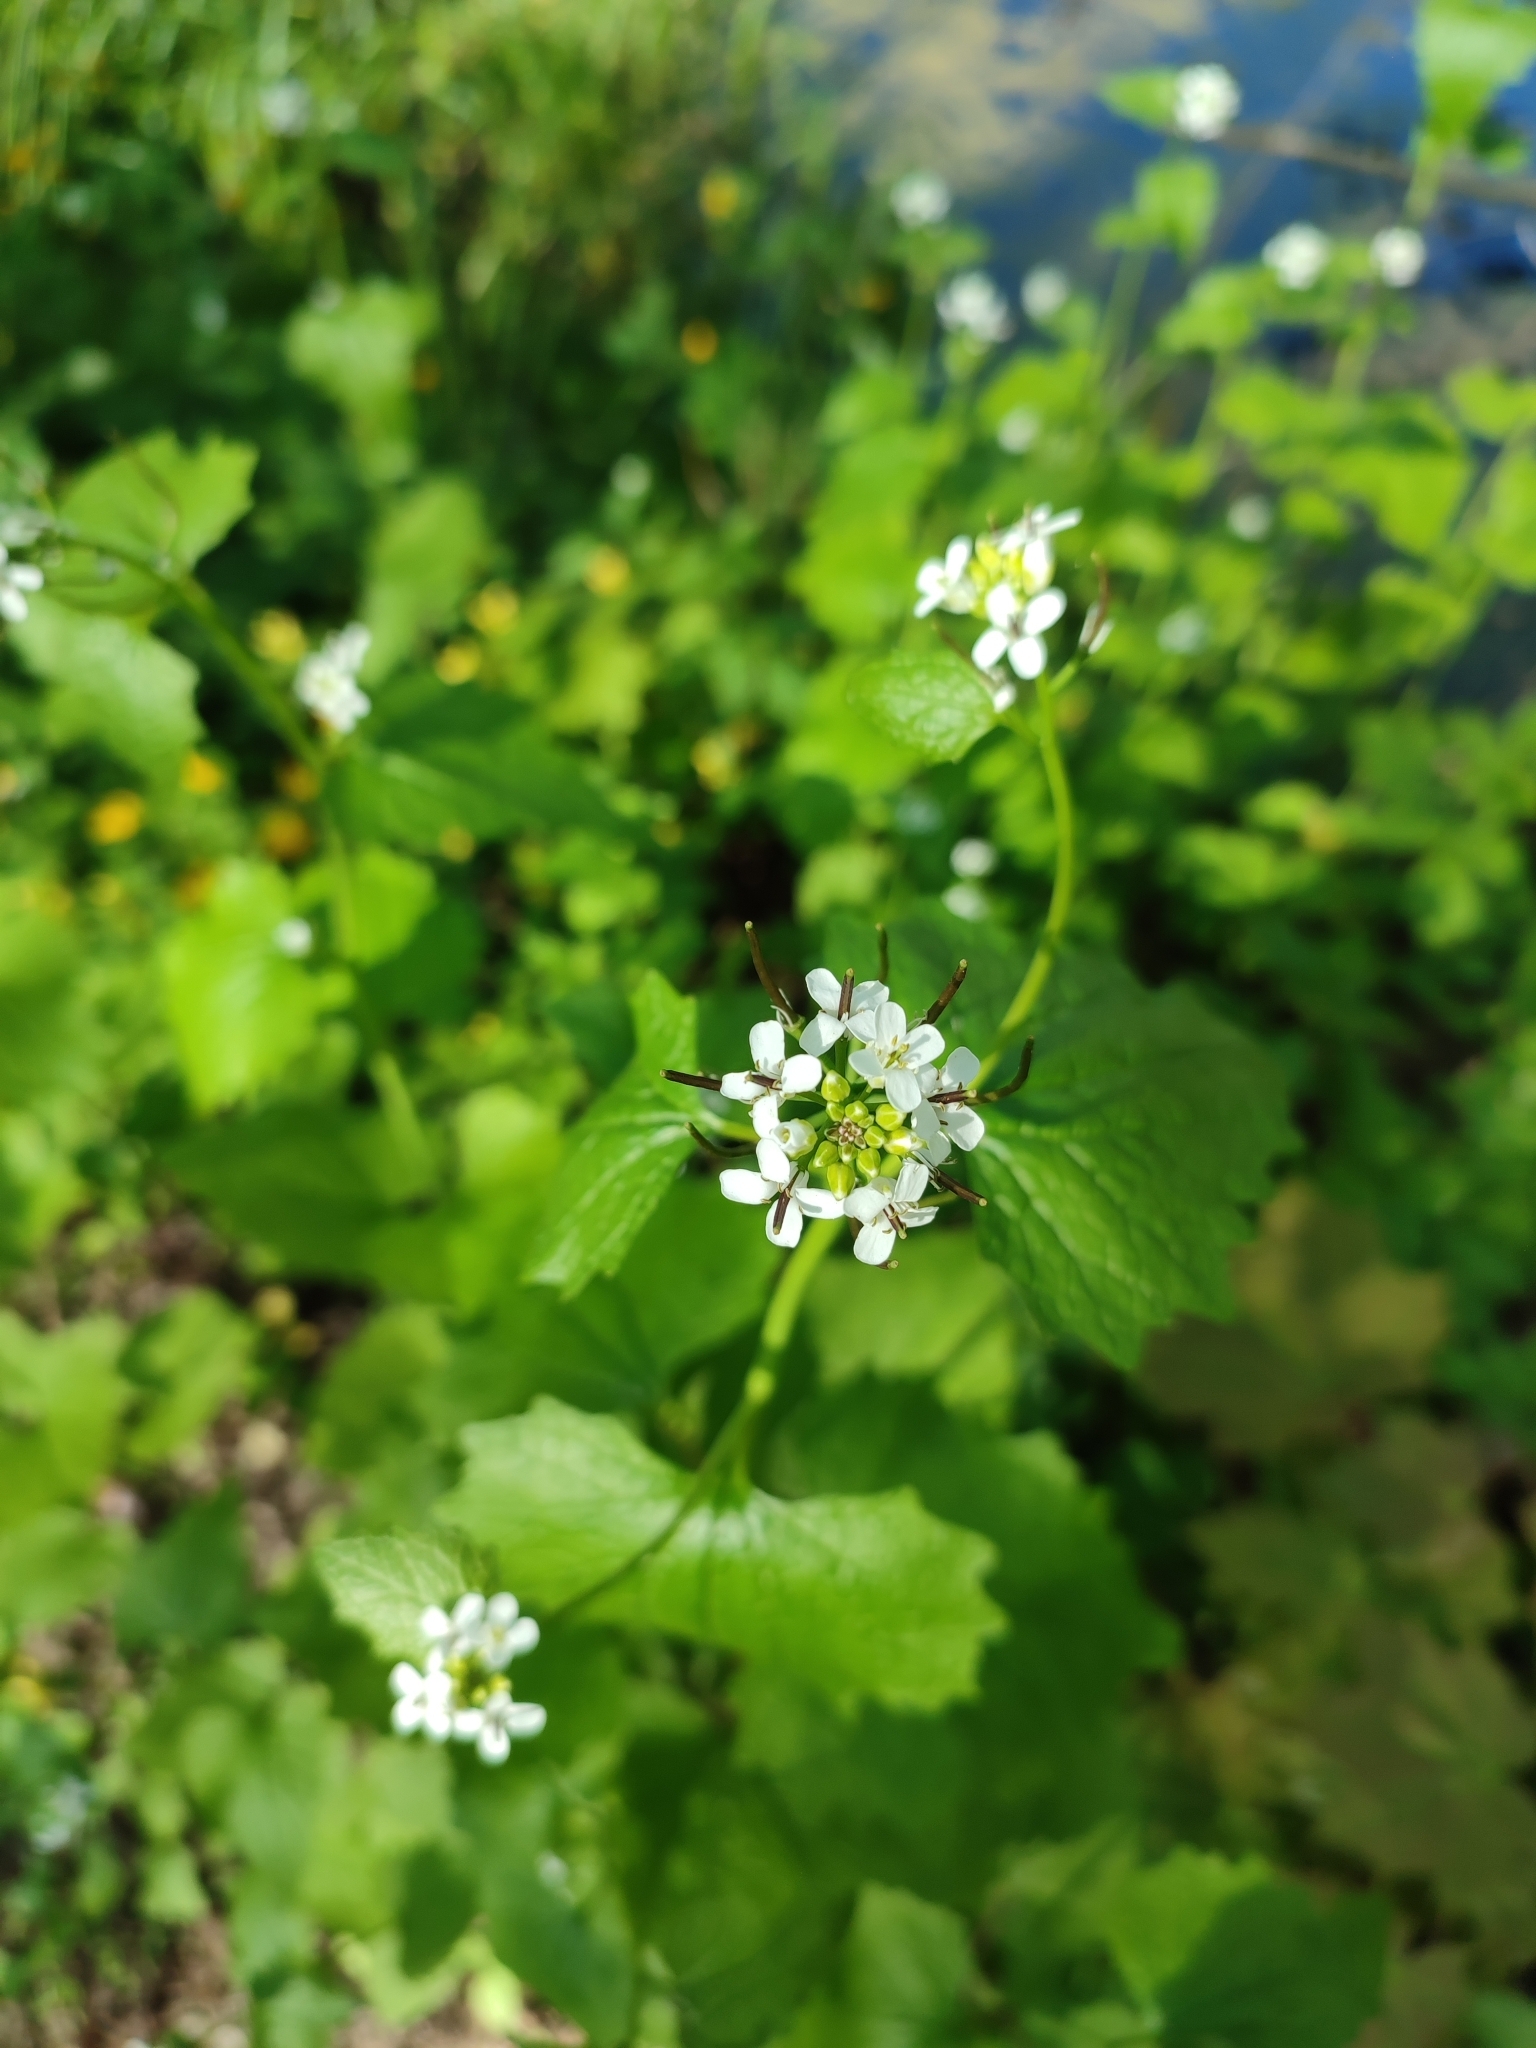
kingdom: Plantae
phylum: Tracheophyta
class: Magnoliopsida
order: Brassicales
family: Brassicaceae
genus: Alliaria
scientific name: Alliaria petiolata
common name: Garlic mustard
